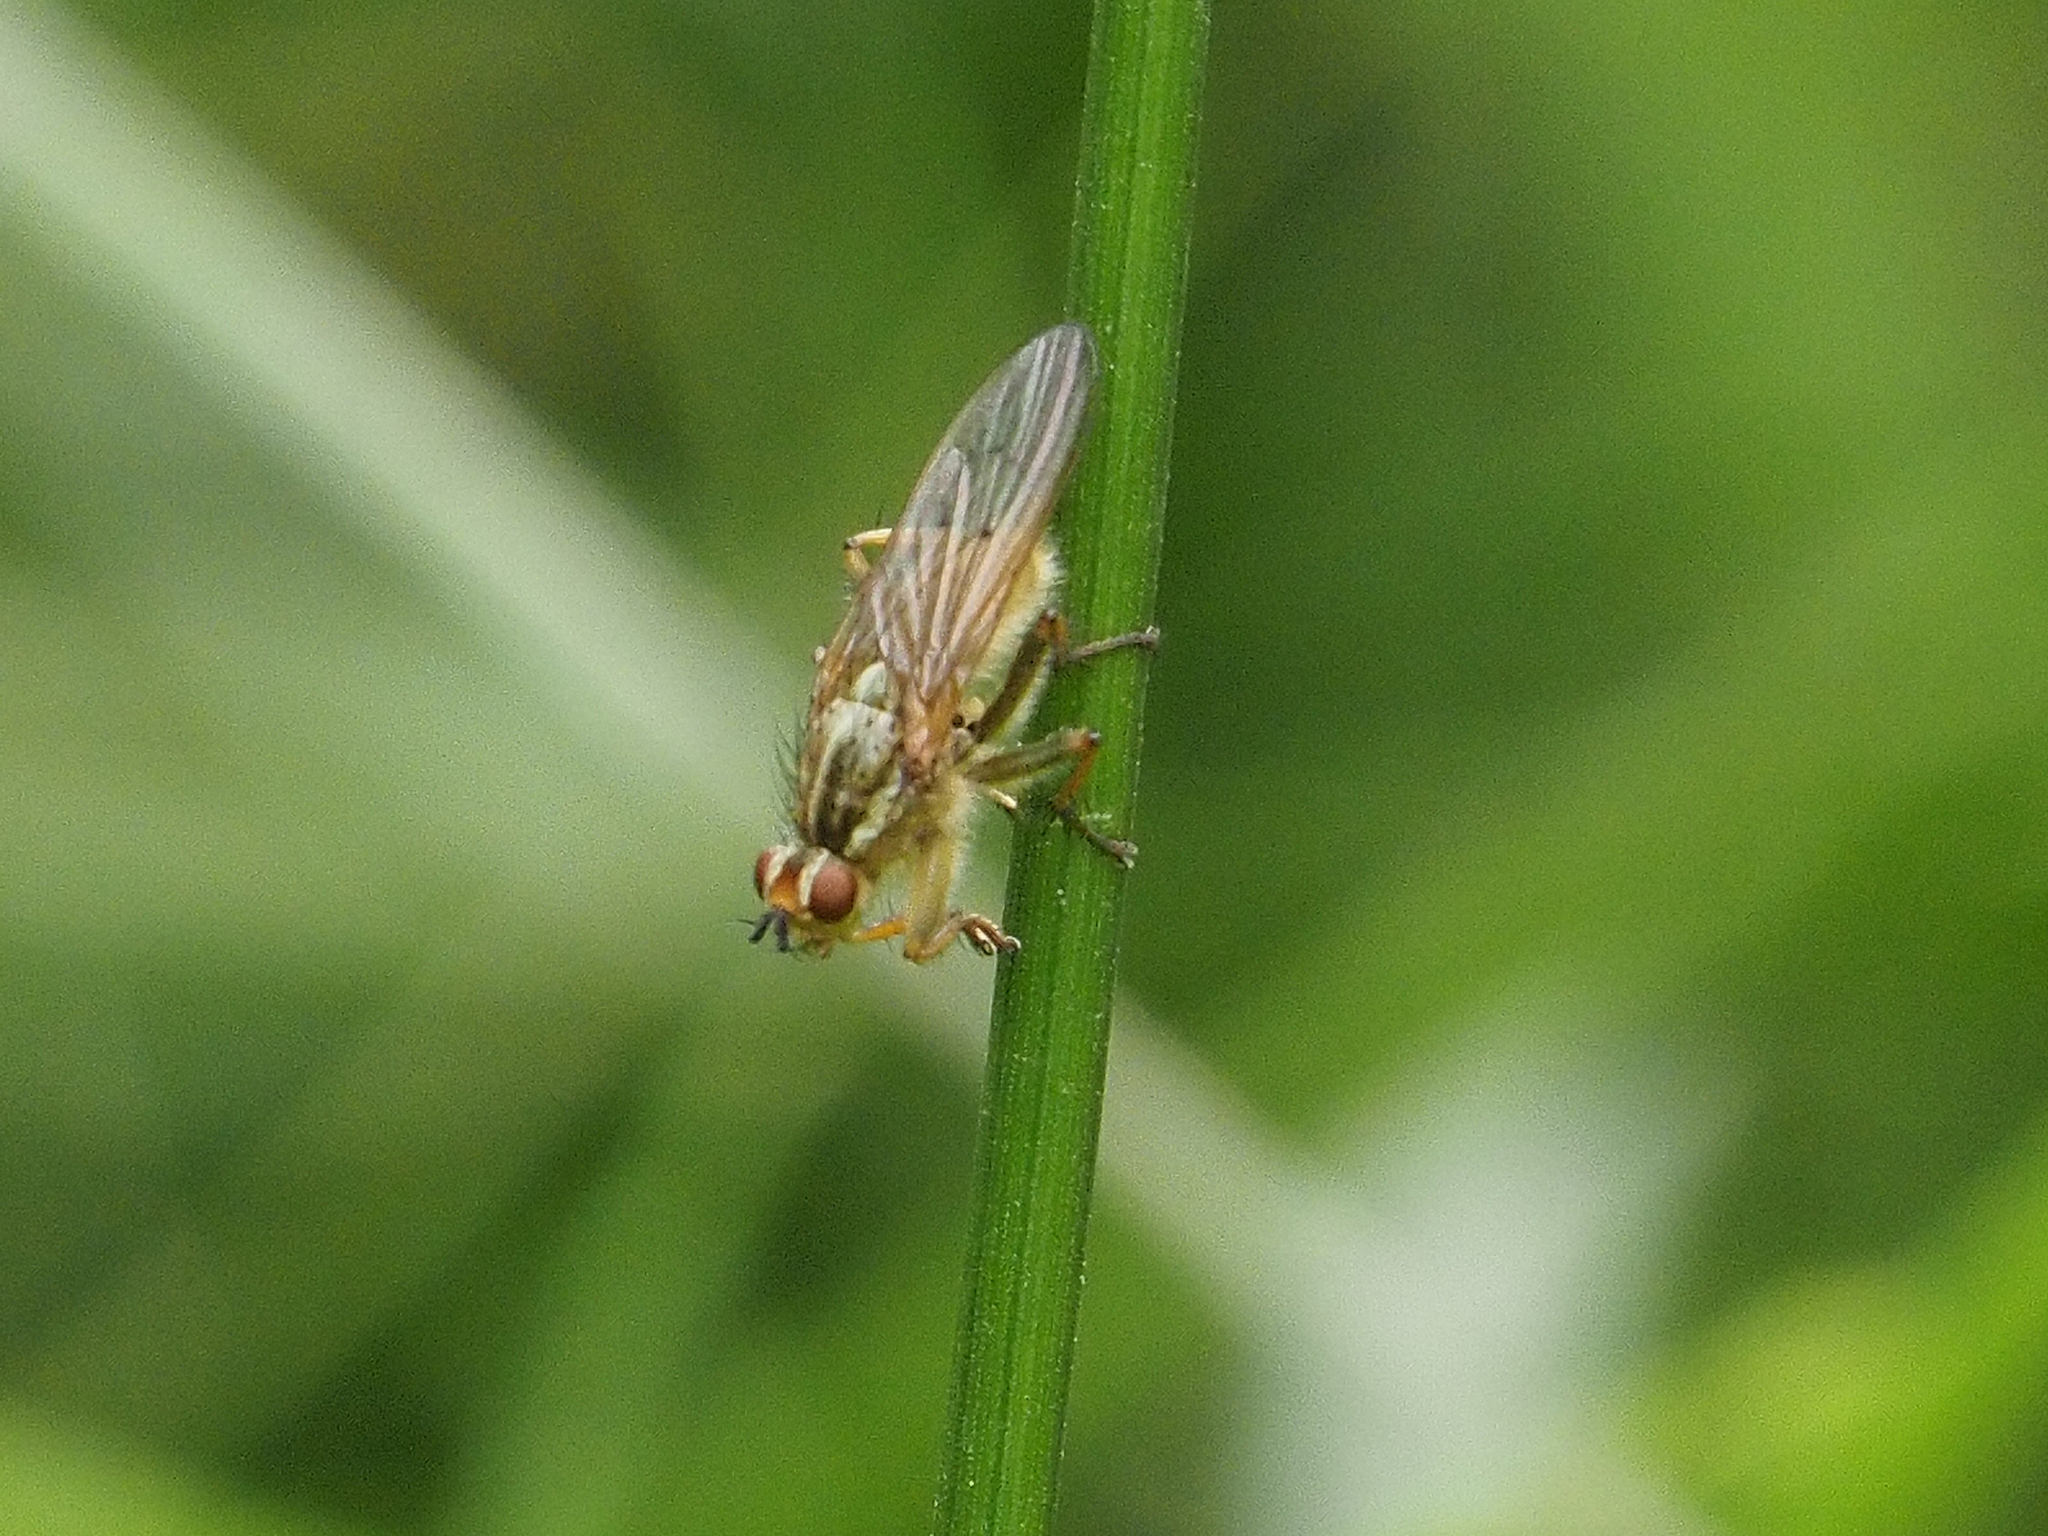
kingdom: Animalia
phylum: Arthropoda
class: Insecta
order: Diptera
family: Scathophagidae
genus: Scathophaga
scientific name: Scathophaga stercoraria
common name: Yellow dung fly
